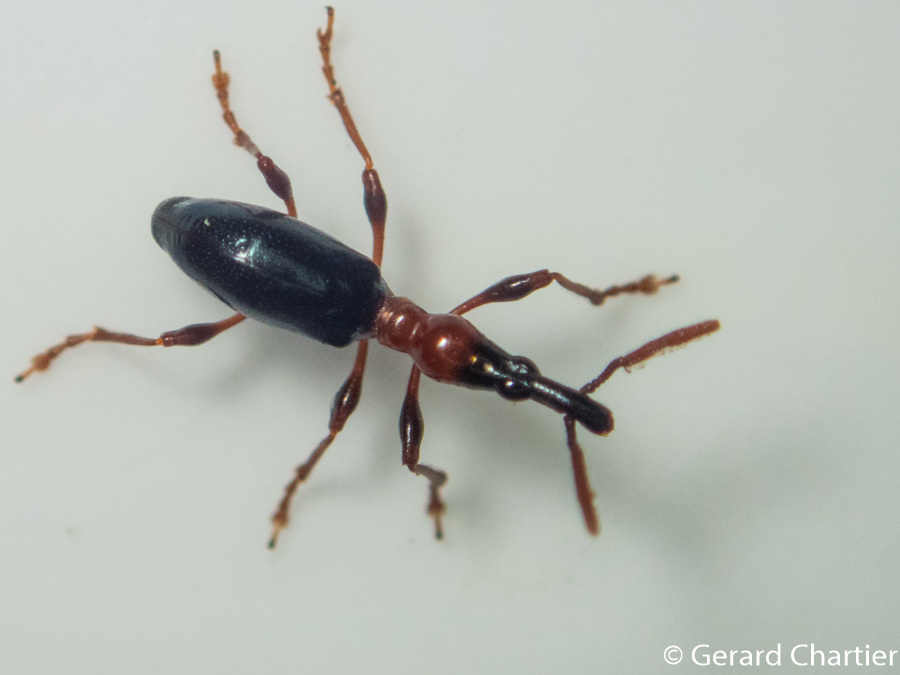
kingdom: Animalia
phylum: Arthropoda
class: Insecta
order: Coleoptera
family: Brentidae
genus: Cylas
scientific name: Cylas formicarius
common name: Sweetpotato weevil
